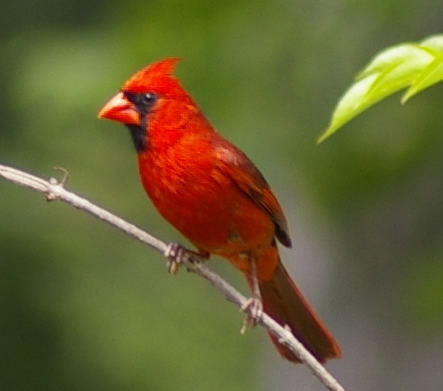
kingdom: Animalia
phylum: Chordata
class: Aves
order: Passeriformes
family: Cardinalidae
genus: Cardinalis
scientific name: Cardinalis cardinalis
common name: Northern cardinal
